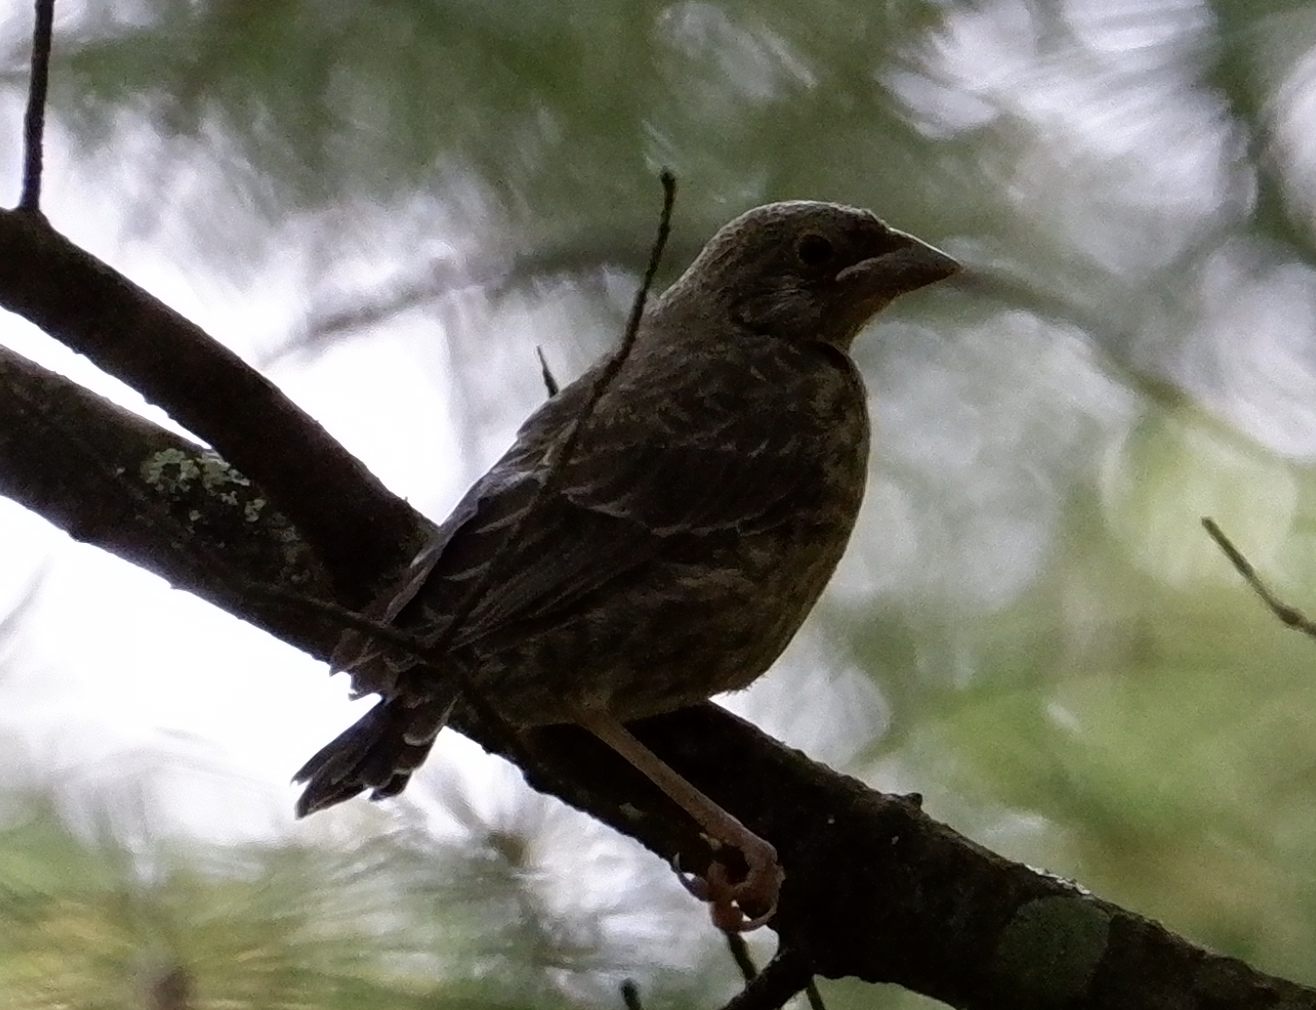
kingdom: Animalia
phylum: Chordata
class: Aves
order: Passeriformes
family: Icteridae
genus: Molothrus
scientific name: Molothrus ater
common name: Brown-headed cowbird
